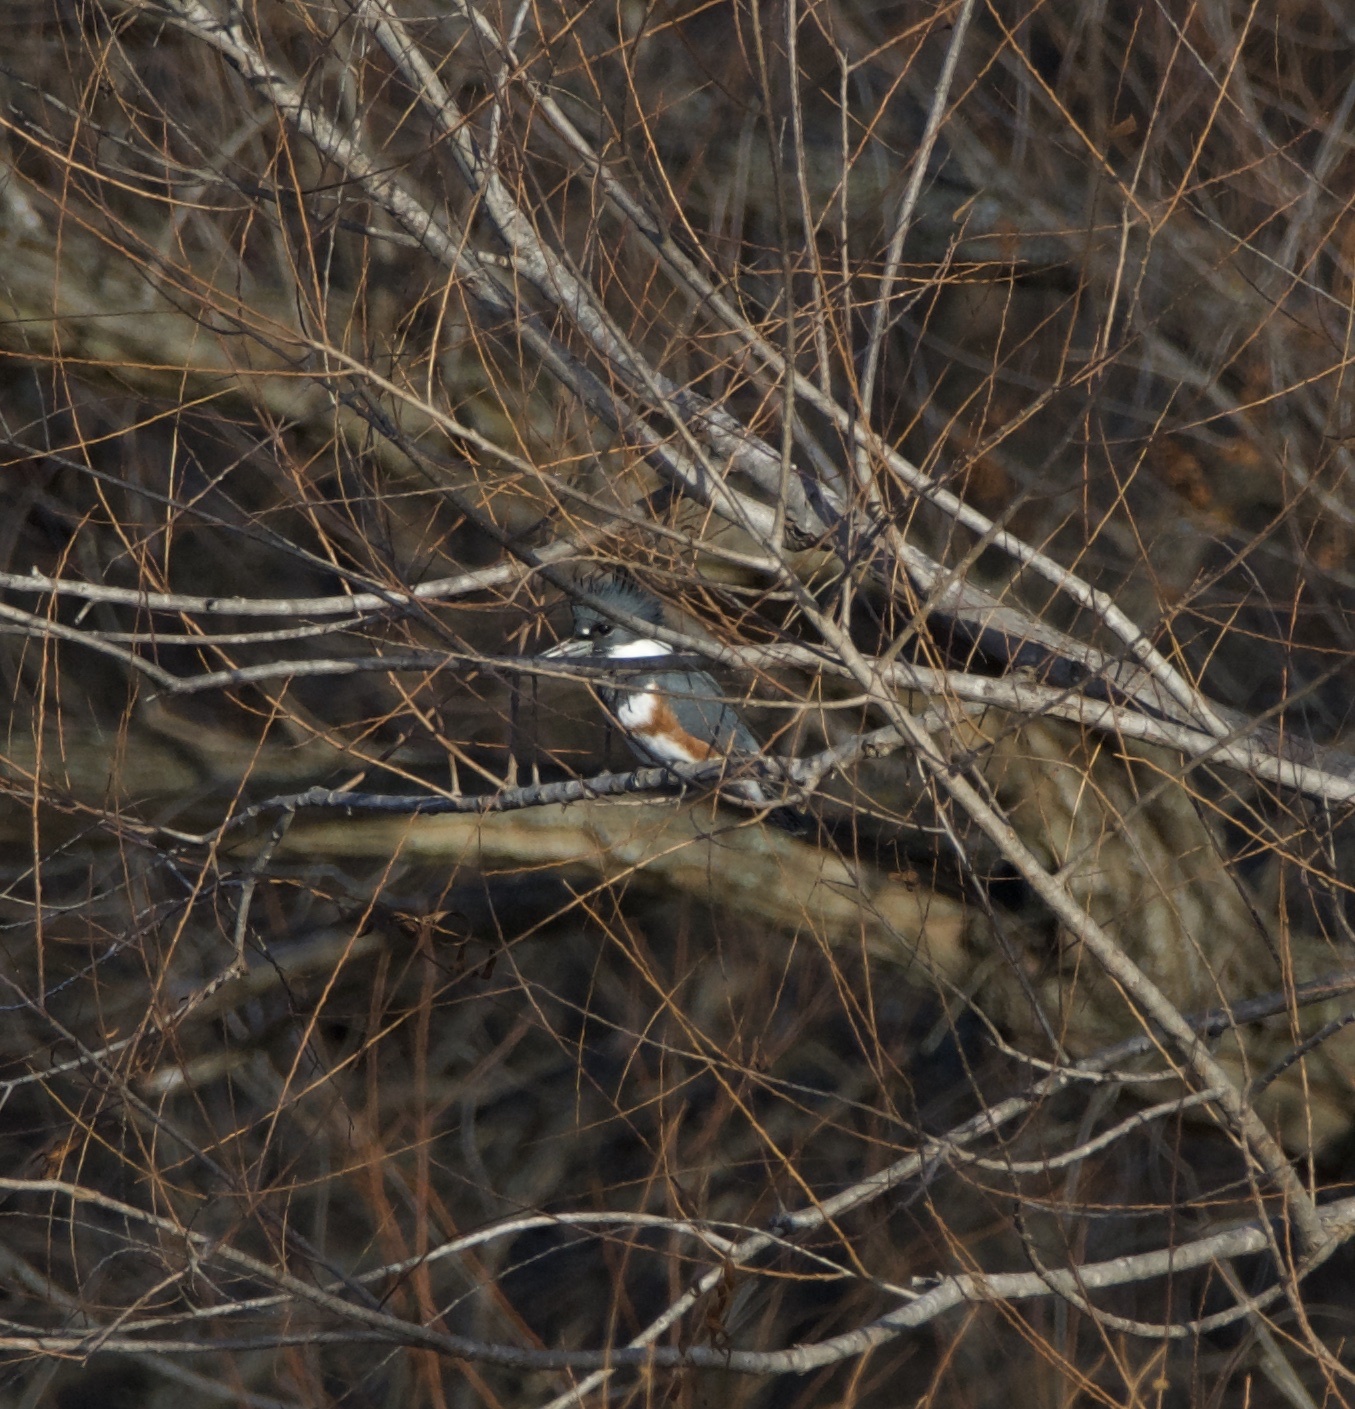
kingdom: Animalia
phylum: Chordata
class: Aves
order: Coraciiformes
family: Alcedinidae
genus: Megaceryle
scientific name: Megaceryle alcyon
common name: Belted kingfisher
